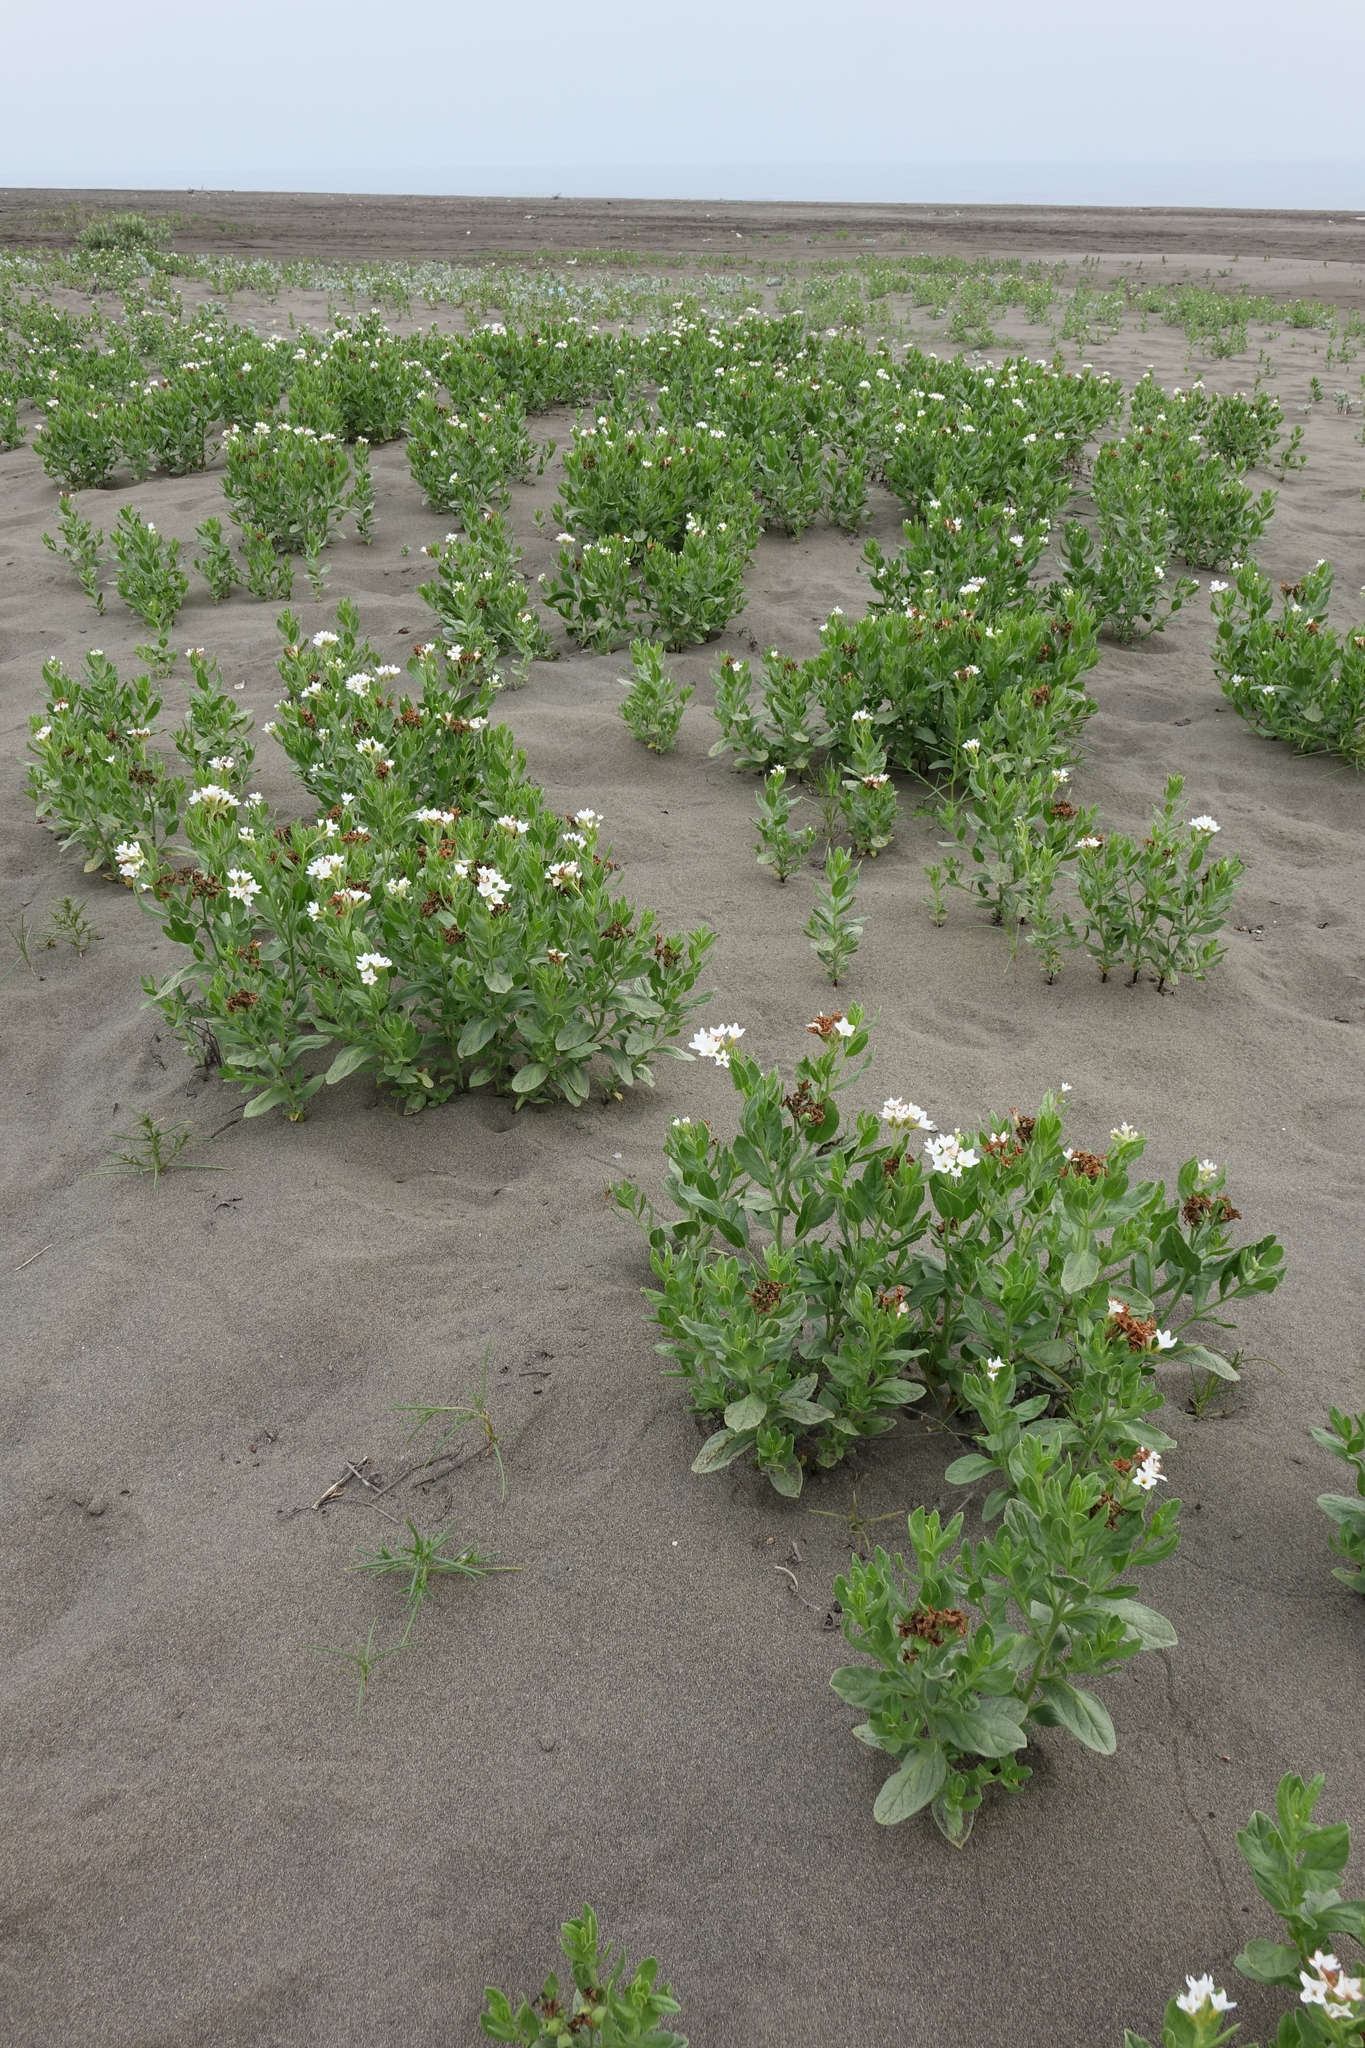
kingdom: Plantae
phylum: Tracheophyta
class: Magnoliopsida
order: Boraginales
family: Heliotropiaceae
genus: Tournefortia
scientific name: Tournefortia sibirica
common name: Siberian sea rosemary
